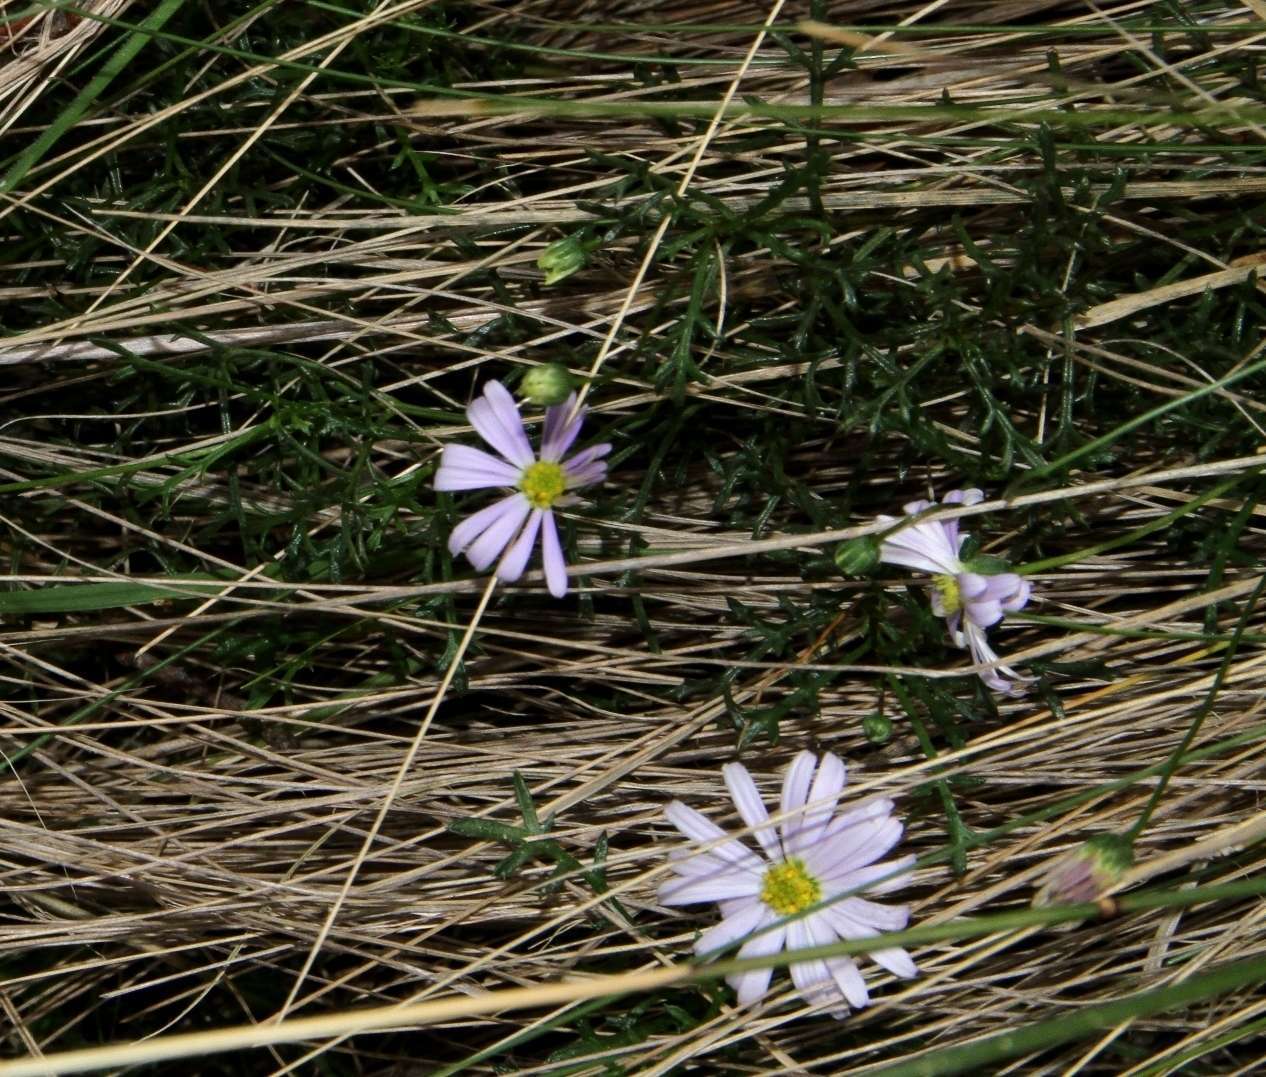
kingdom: Plantae
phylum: Tracheophyta
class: Magnoliopsida
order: Asterales
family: Asteraceae
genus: Brachyscome
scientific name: Brachyscome multifida
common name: Cut-leaf daisy
